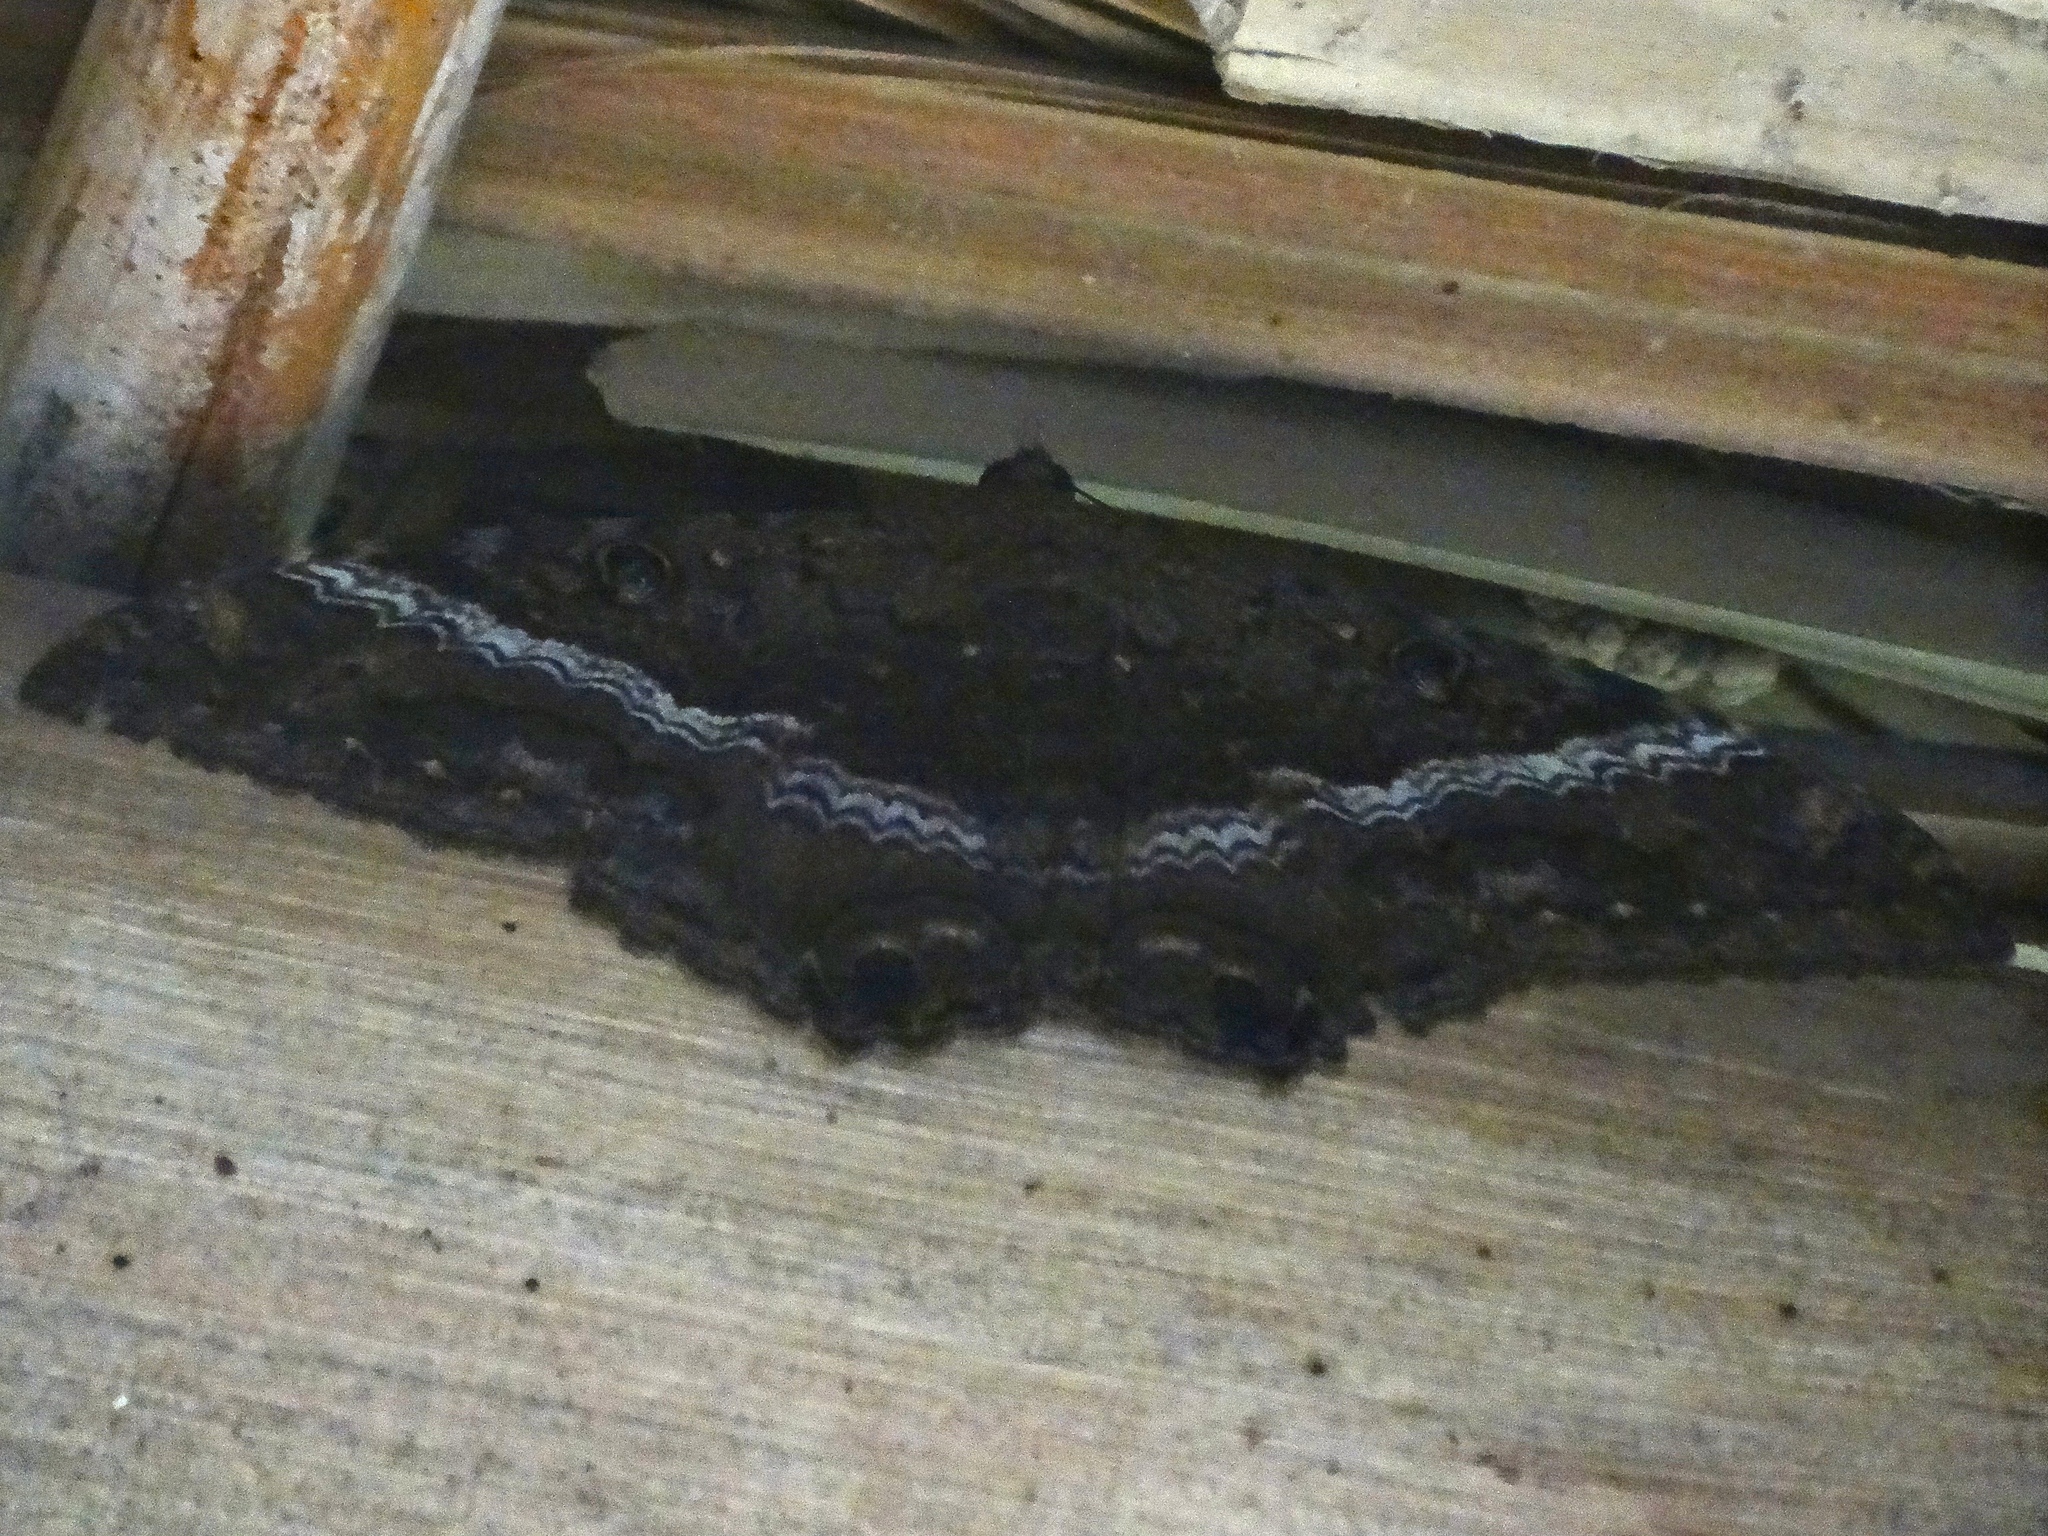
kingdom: Animalia
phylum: Arthropoda
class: Insecta
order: Lepidoptera
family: Erebidae
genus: Ascalapha
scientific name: Ascalapha odorata
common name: Black witch
